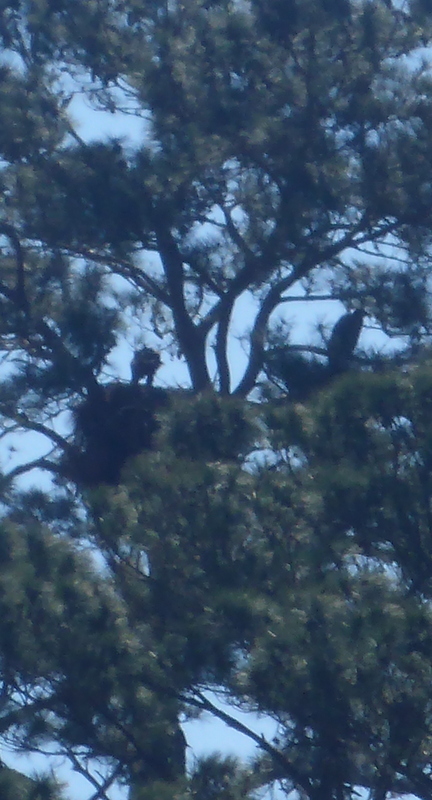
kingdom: Animalia
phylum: Chordata
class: Aves
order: Accipitriformes
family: Accipitridae
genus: Haliaeetus
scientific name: Haliaeetus leucocephalus
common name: Bald eagle
